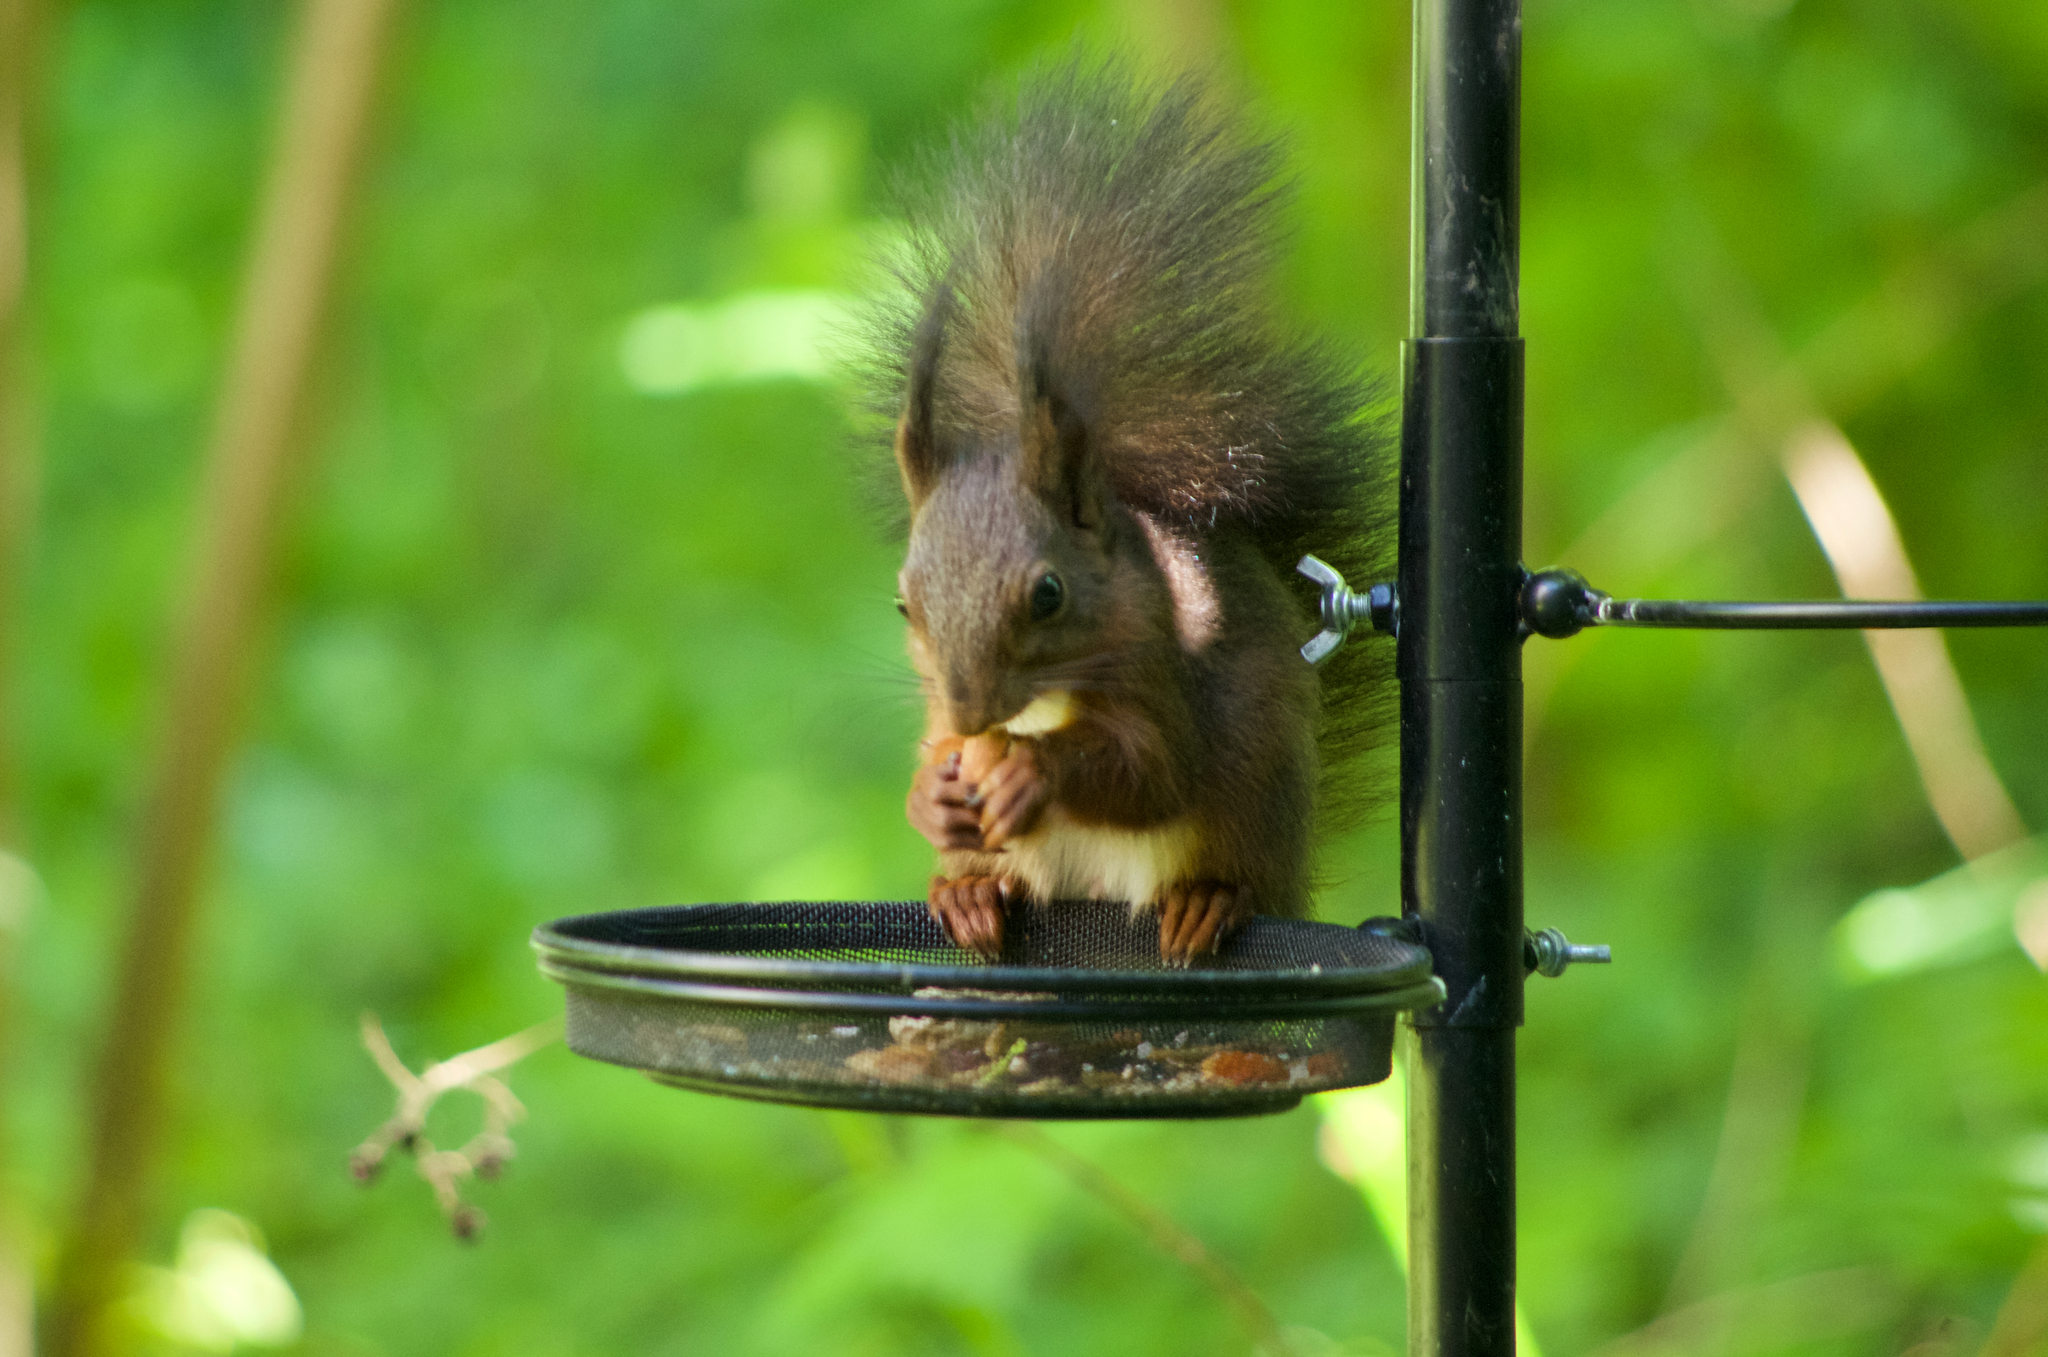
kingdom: Animalia
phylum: Chordata
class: Mammalia
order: Rodentia
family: Sciuridae
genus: Sciurus
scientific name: Sciurus vulgaris
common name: Eurasian red squirrel
